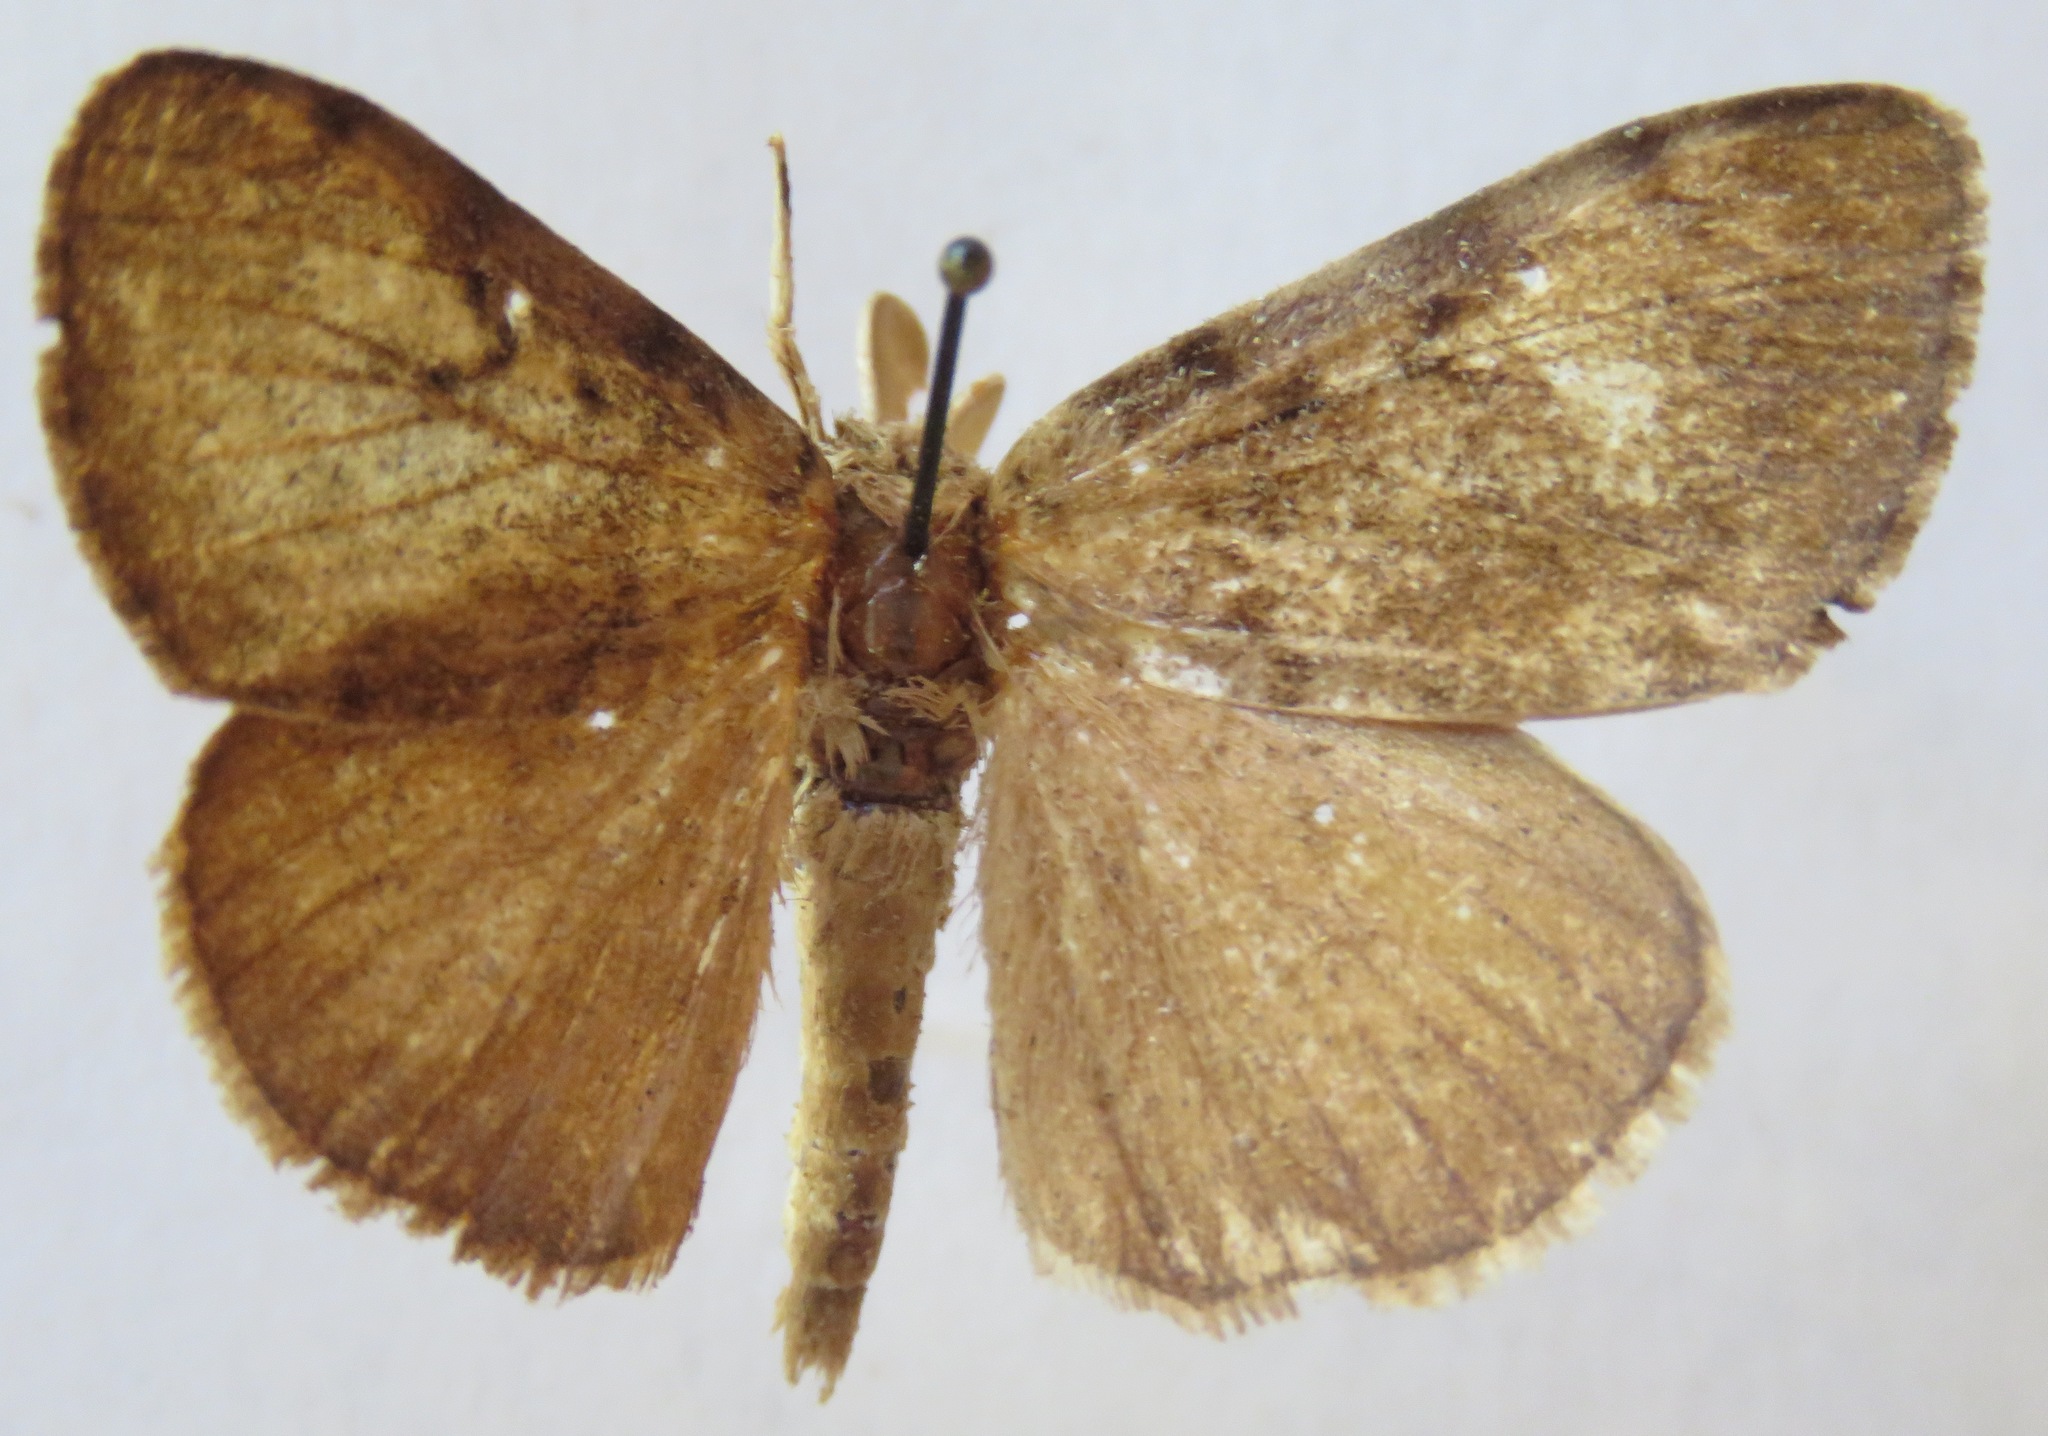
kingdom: Animalia
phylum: Arthropoda
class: Insecta
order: Lepidoptera
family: Erebidae
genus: Lymantria
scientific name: Lymantria dispar
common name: Gypsy moth
